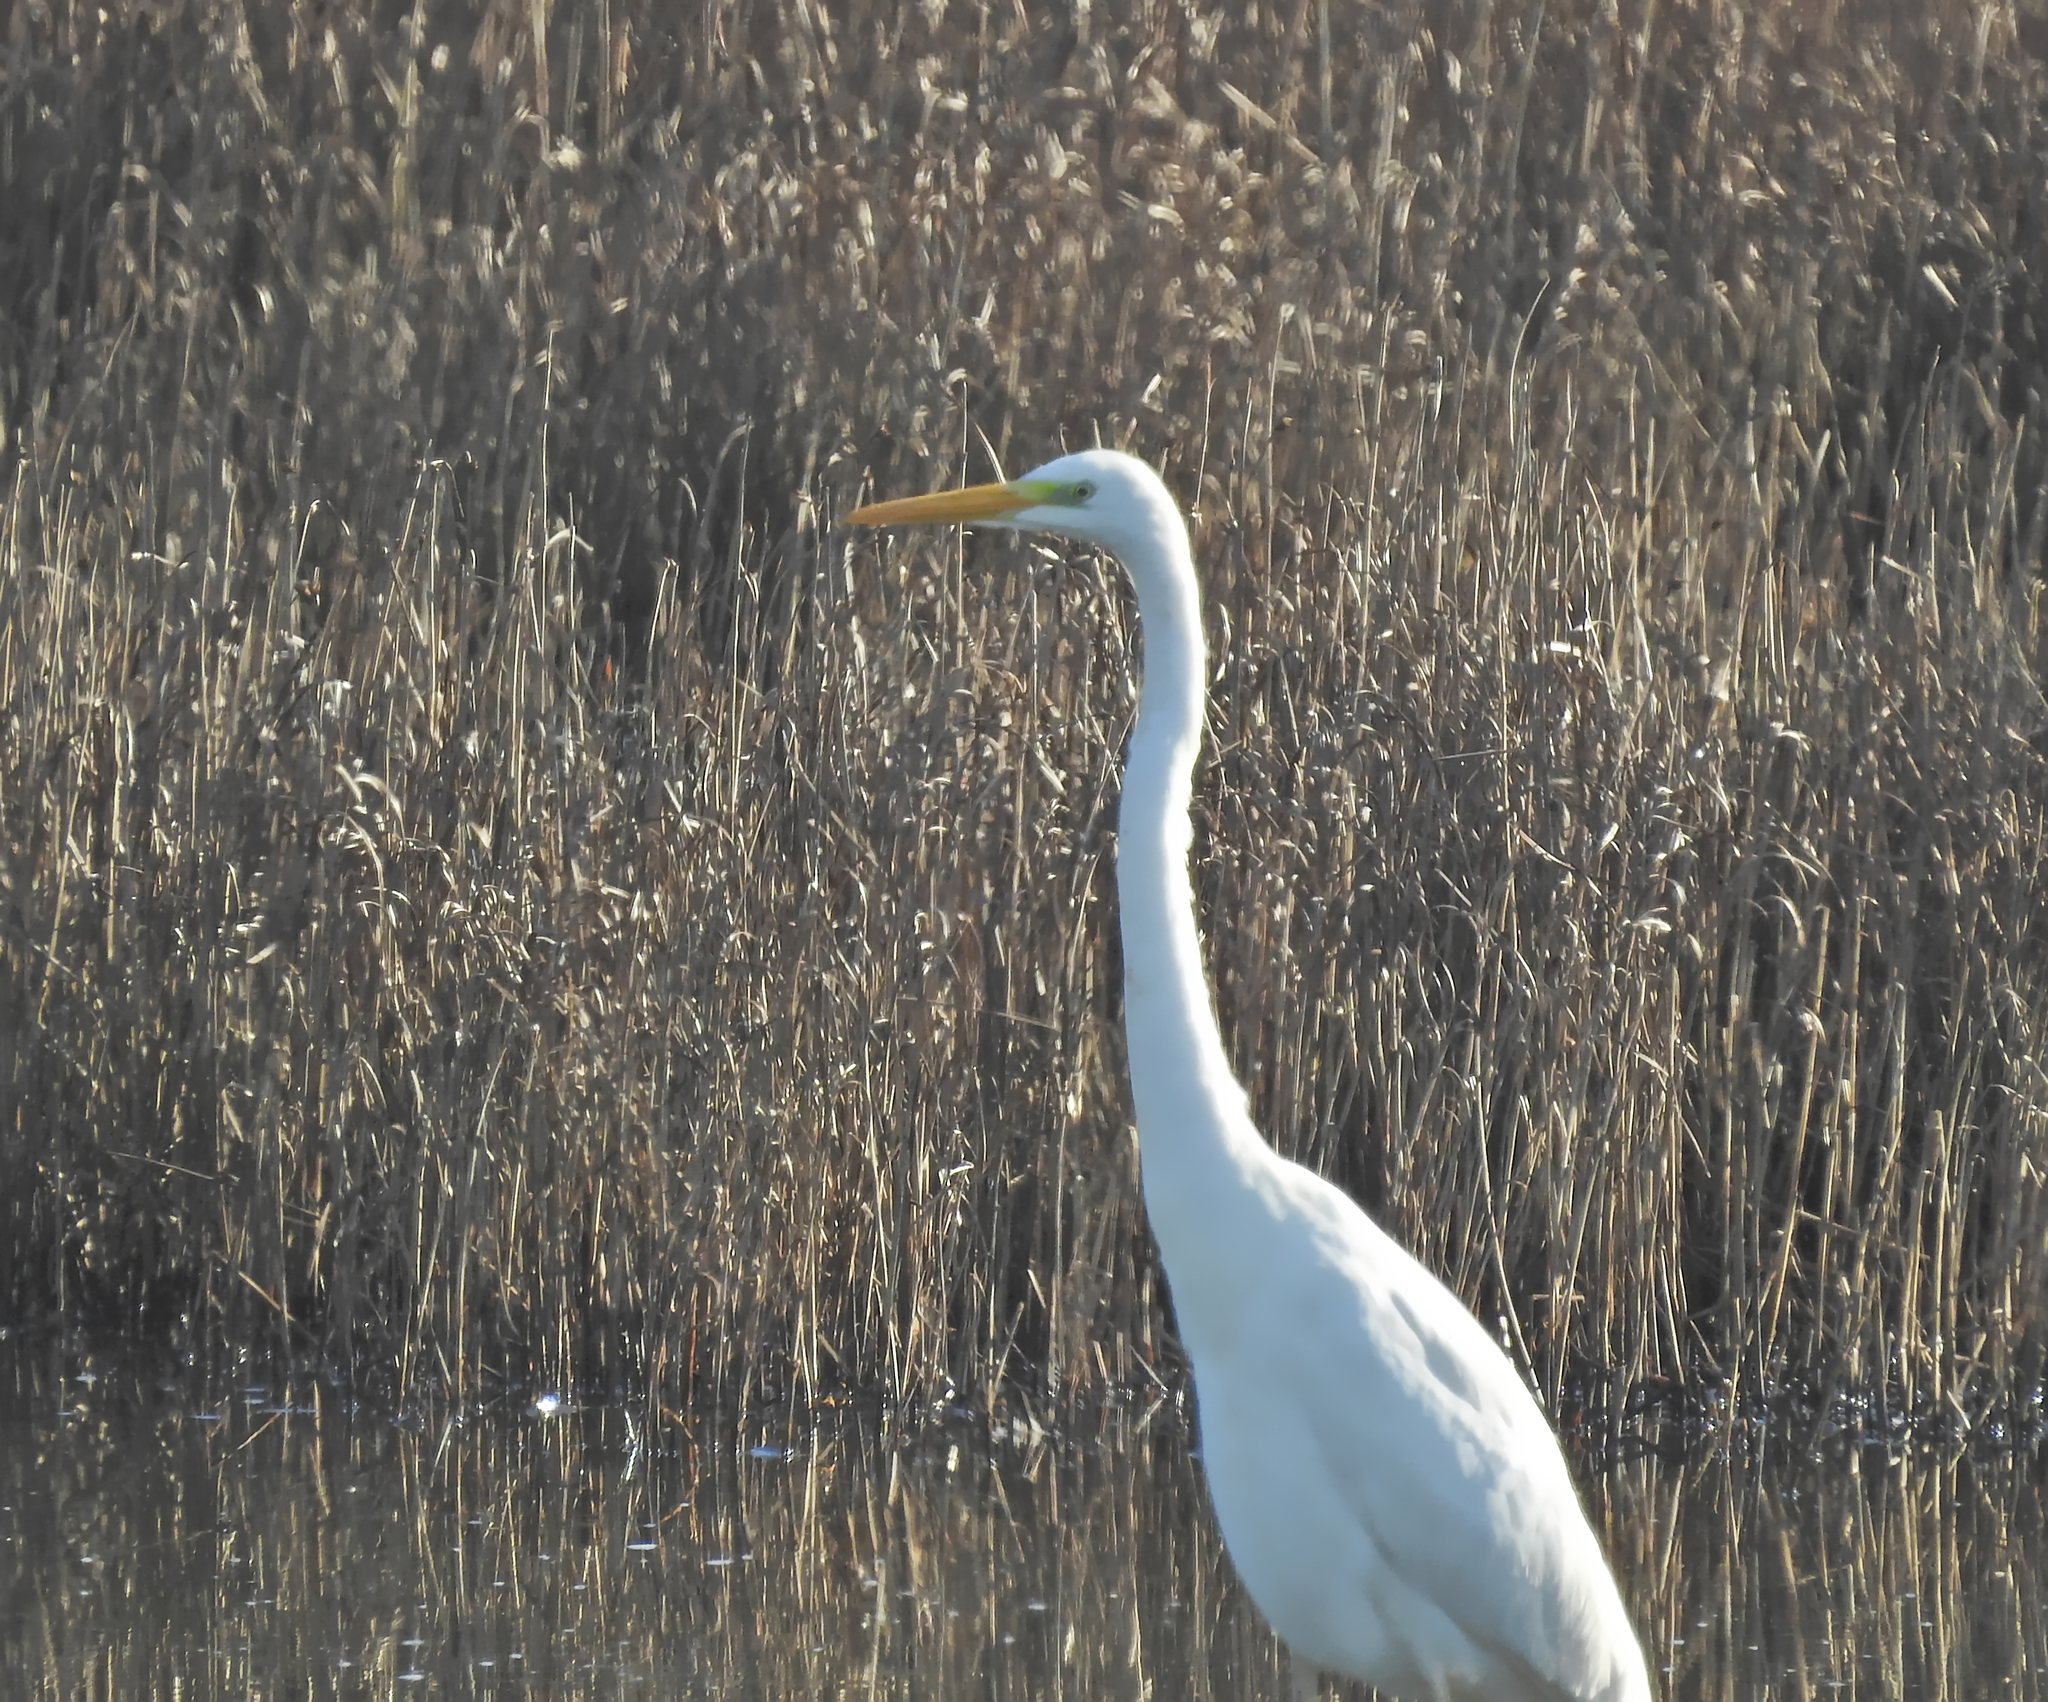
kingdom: Animalia
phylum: Chordata
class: Aves
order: Pelecaniformes
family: Ardeidae
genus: Ardea
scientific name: Ardea alba
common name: Great egret
